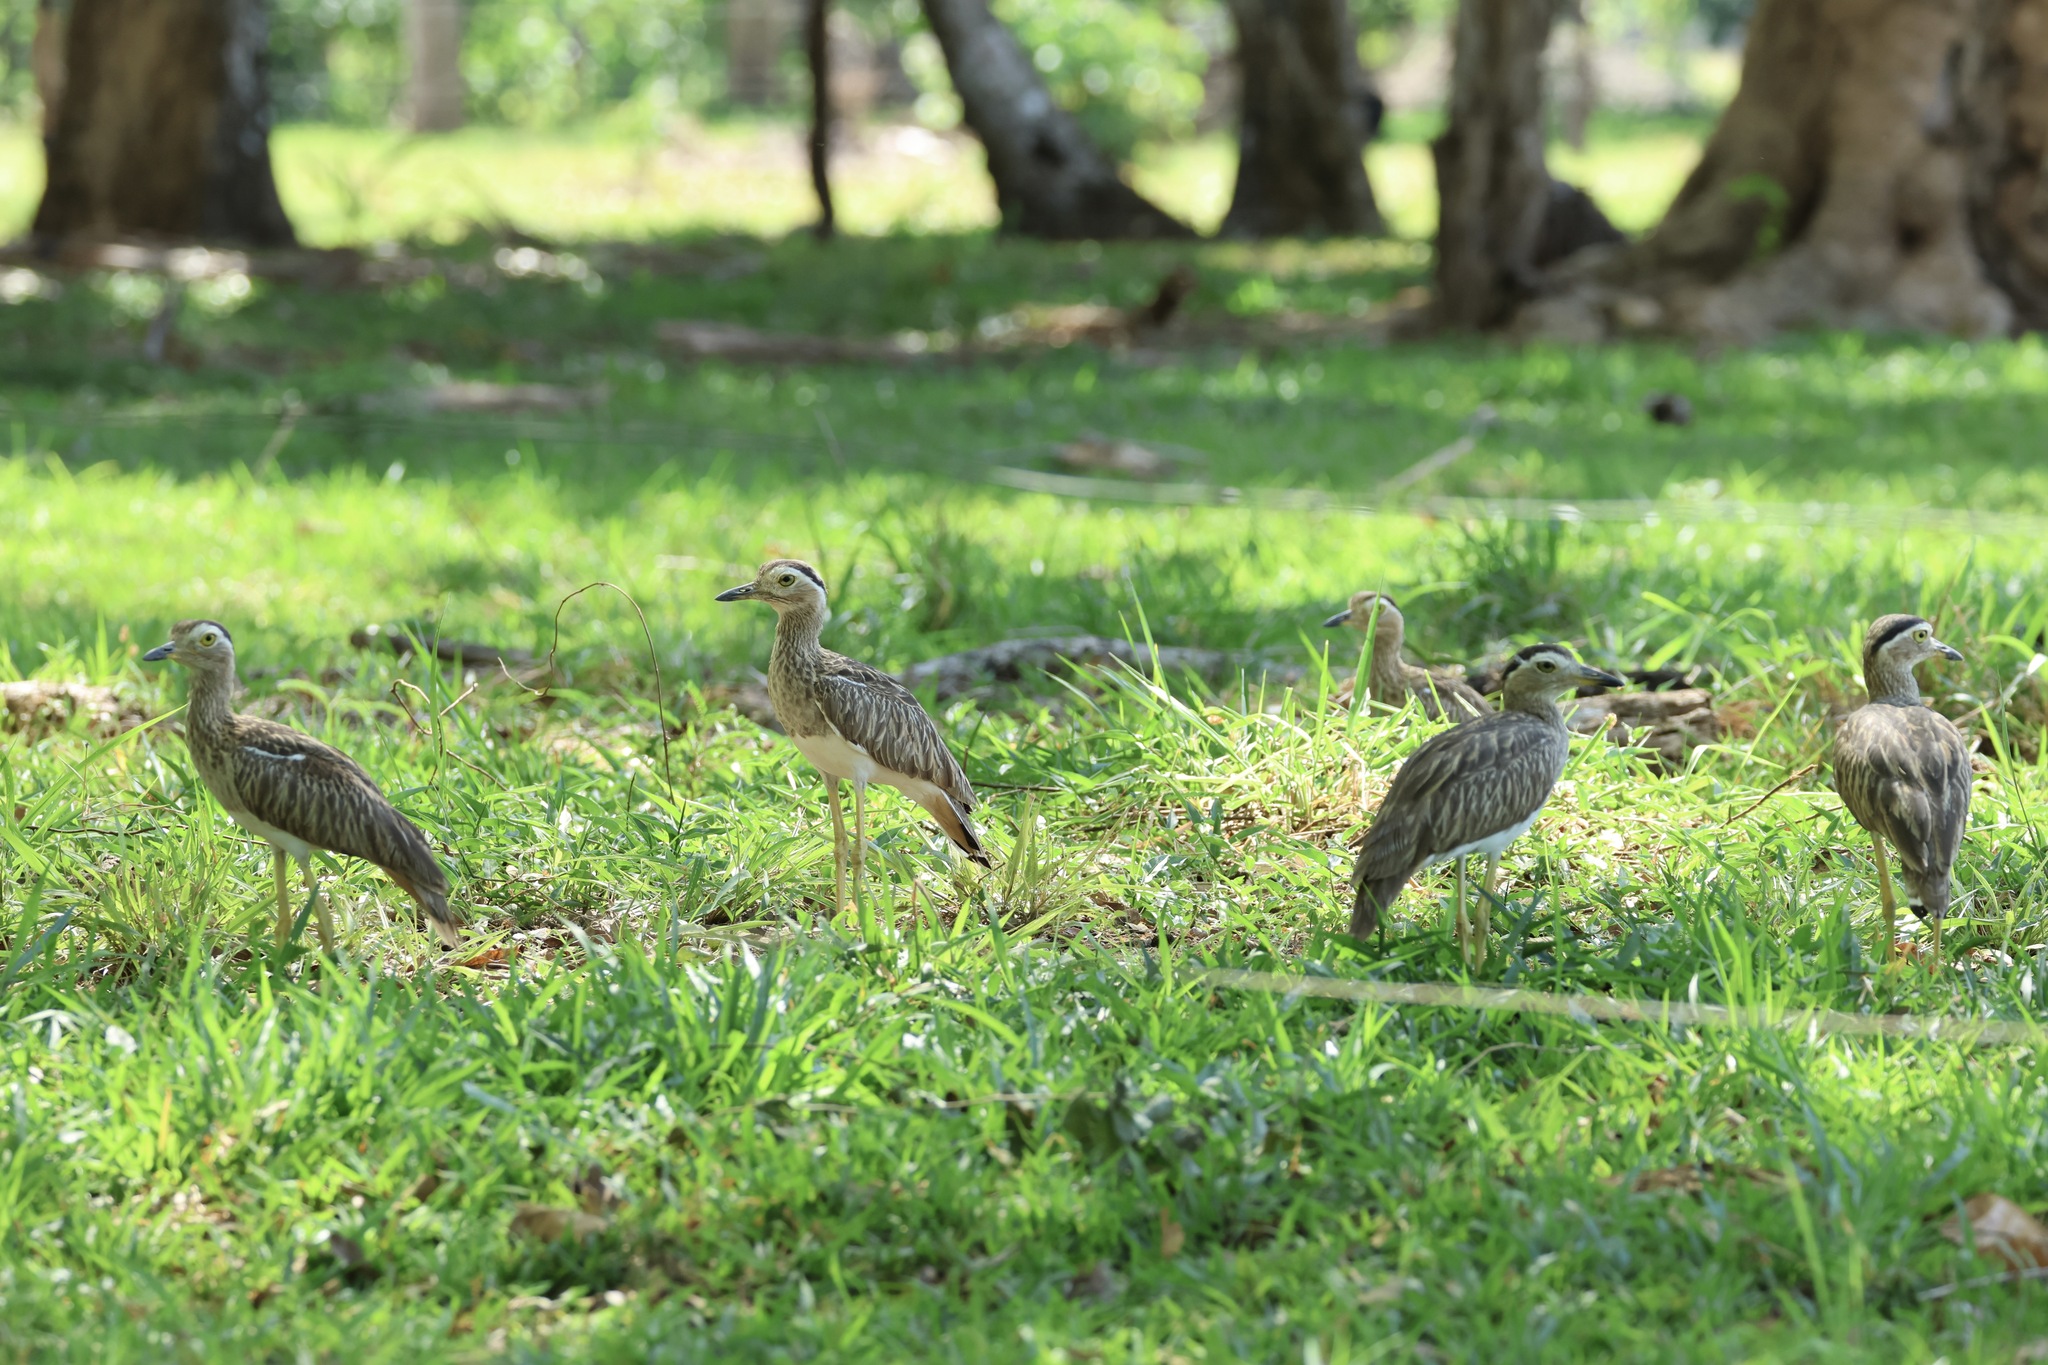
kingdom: Animalia
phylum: Chordata
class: Aves
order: Charadriiformes
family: Burhinidae
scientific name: Burhinidae
